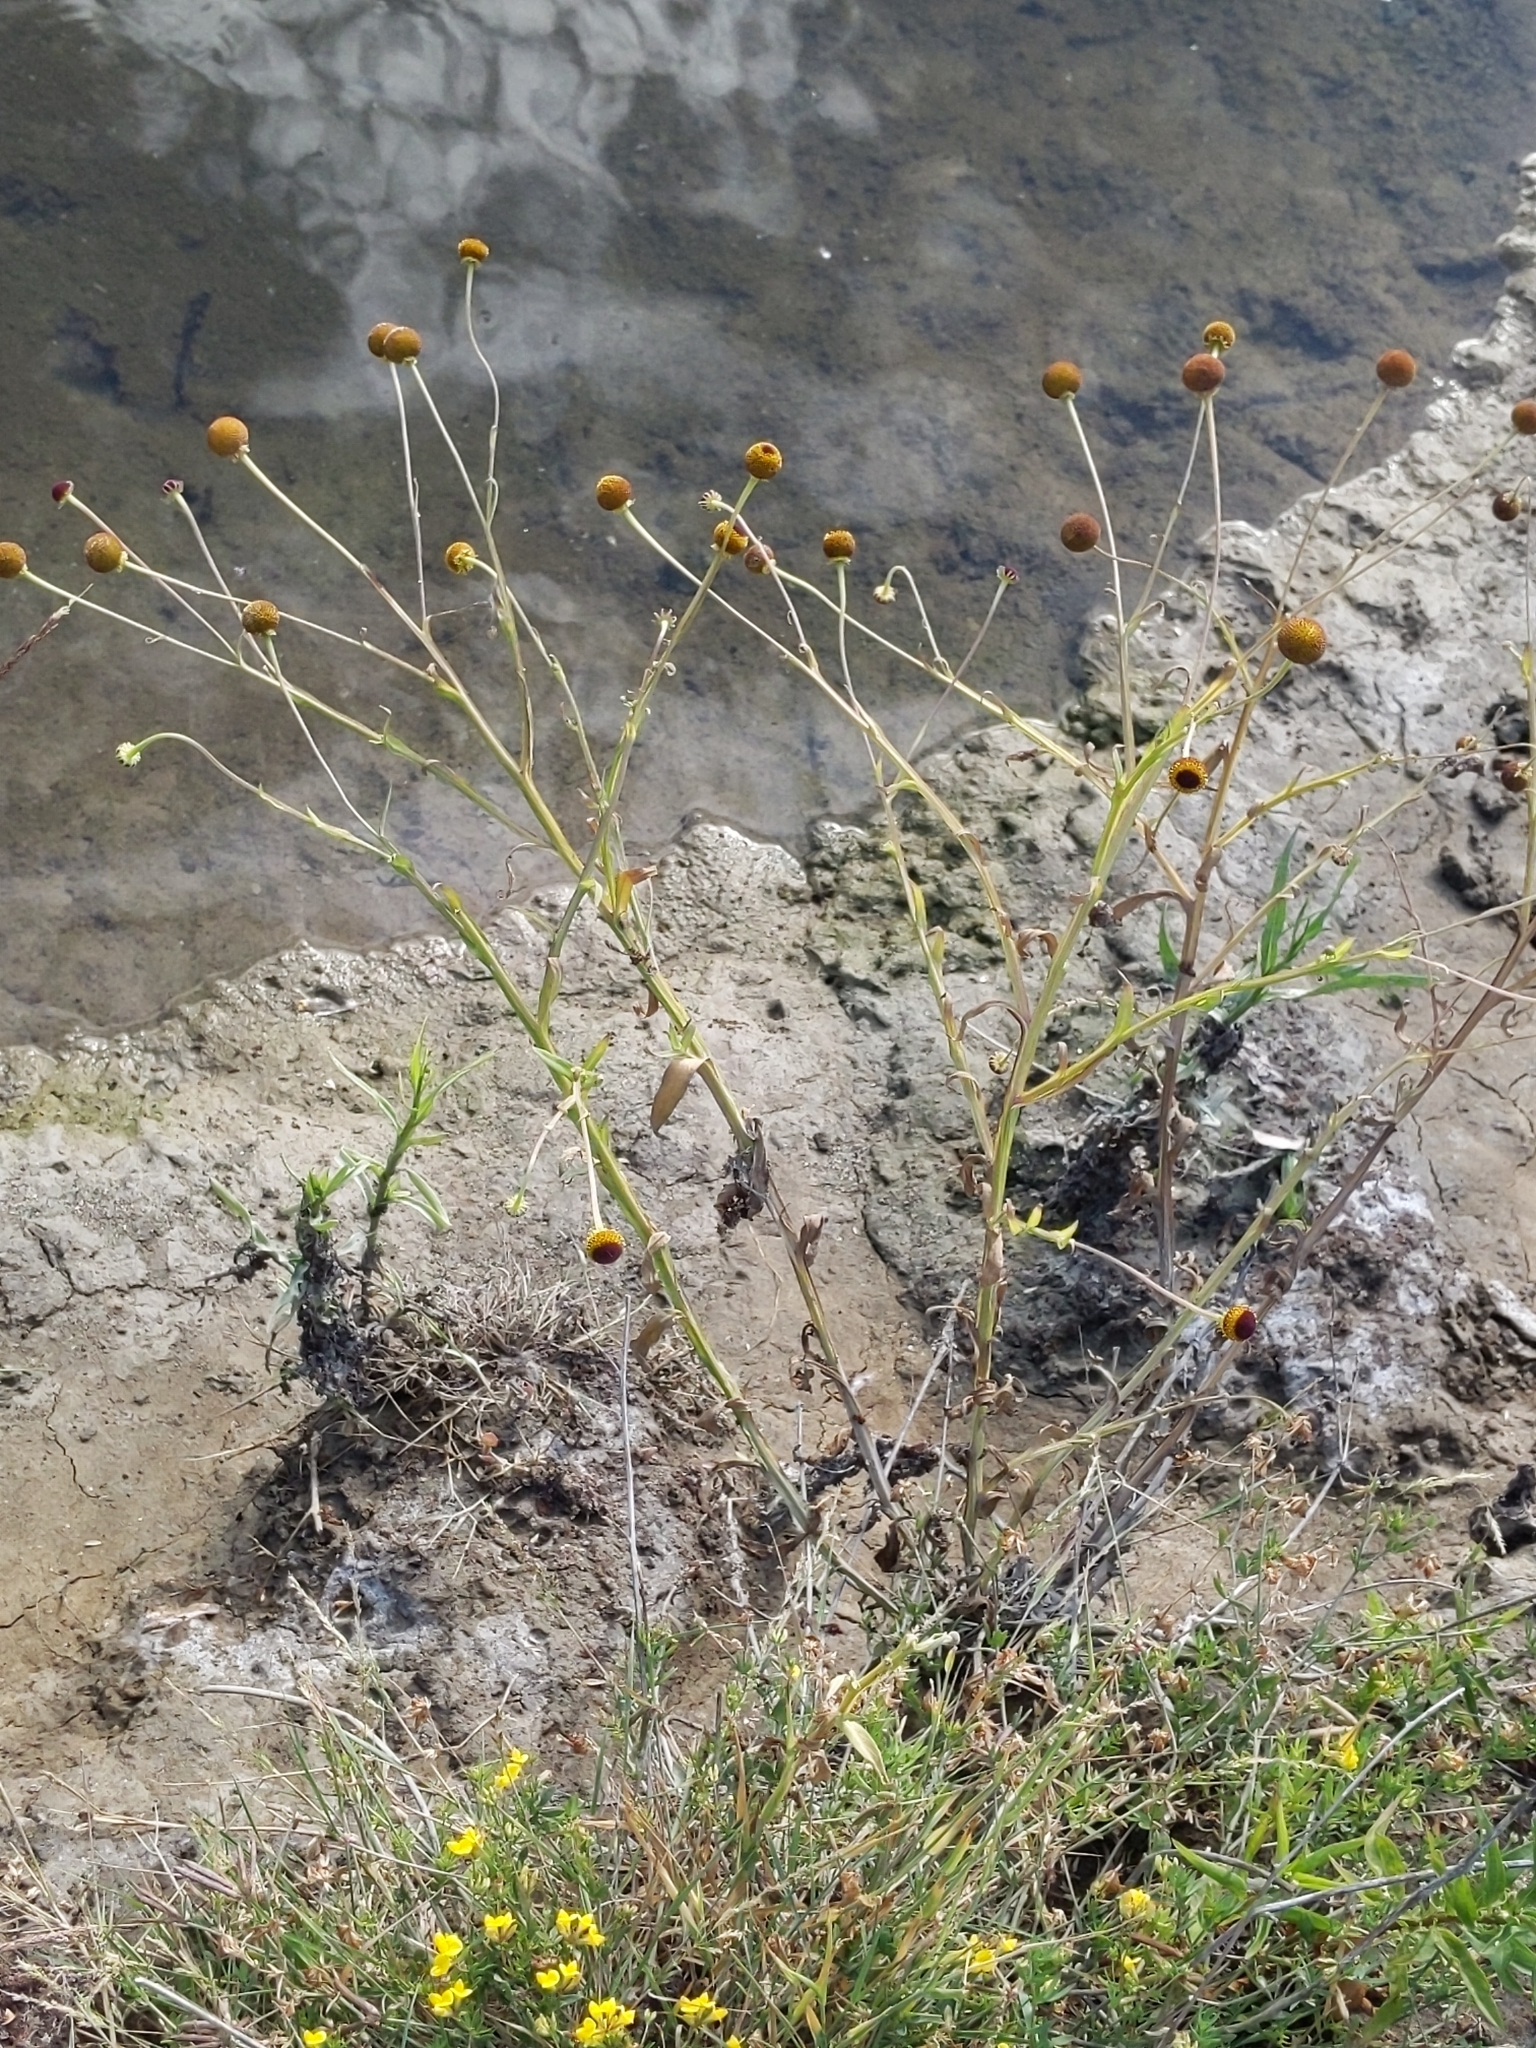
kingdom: Plantae
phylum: Tracheophyta
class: Magnoliopsida
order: Asterales
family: Asteraceae
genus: Helenium
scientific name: Helenium puberulum
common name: Sneezewort
